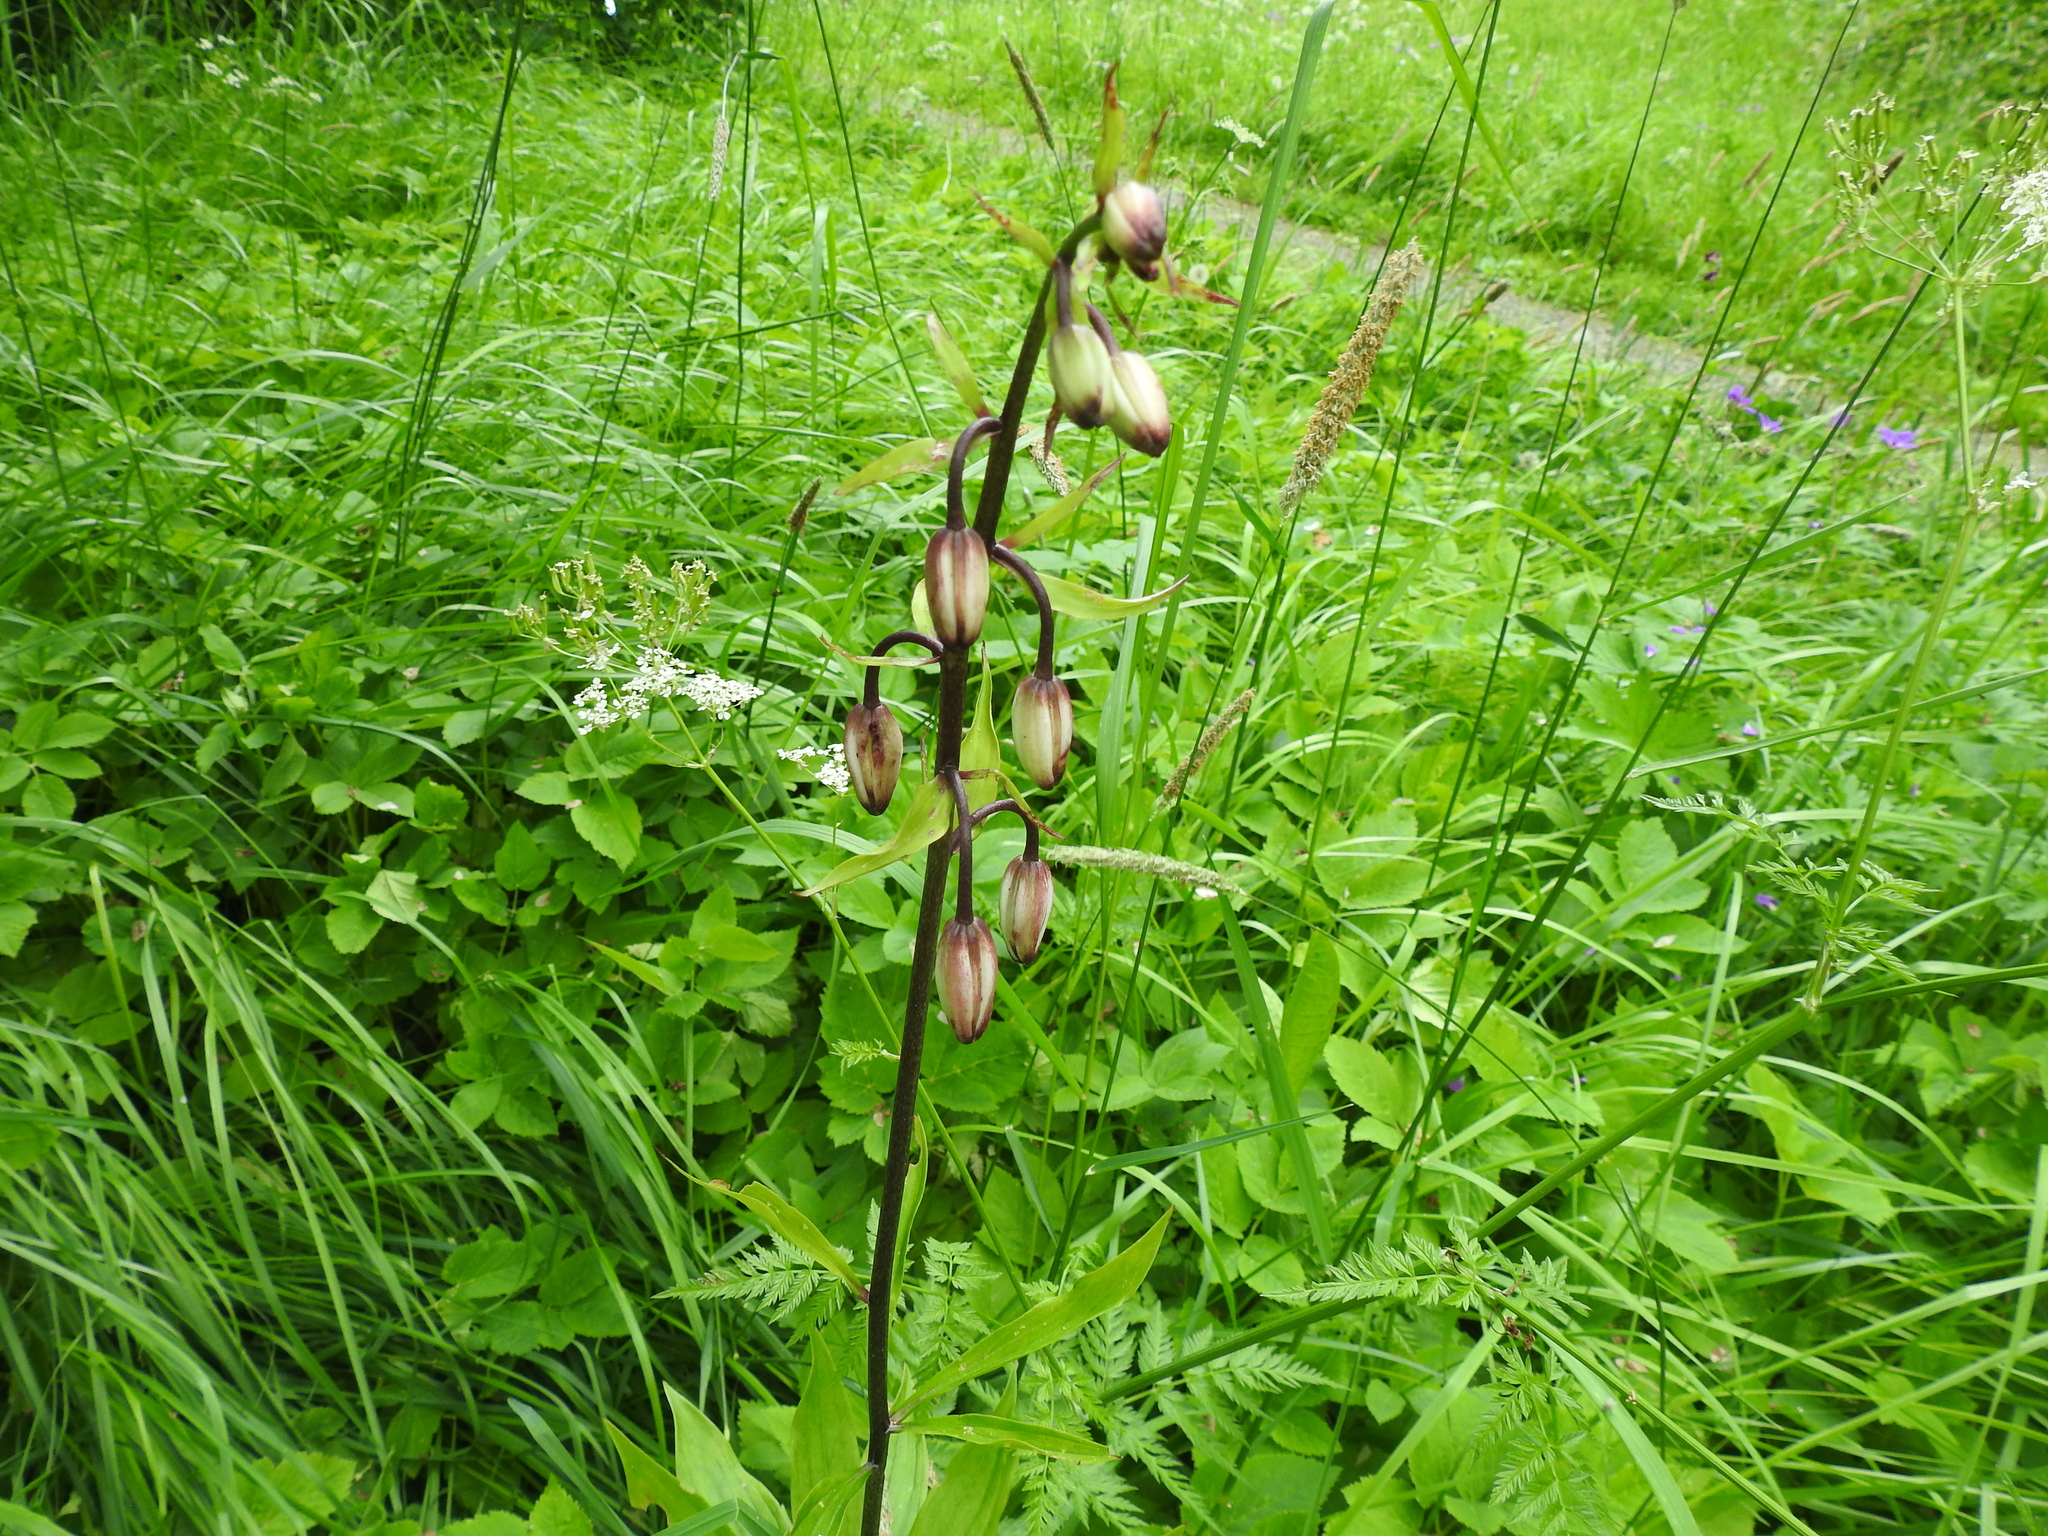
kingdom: Plantae
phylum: Tracheophyta
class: Liliopsida
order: Liliales
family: Liliaceae
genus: Lilium
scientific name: Lilium martagon
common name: Martagon lily
